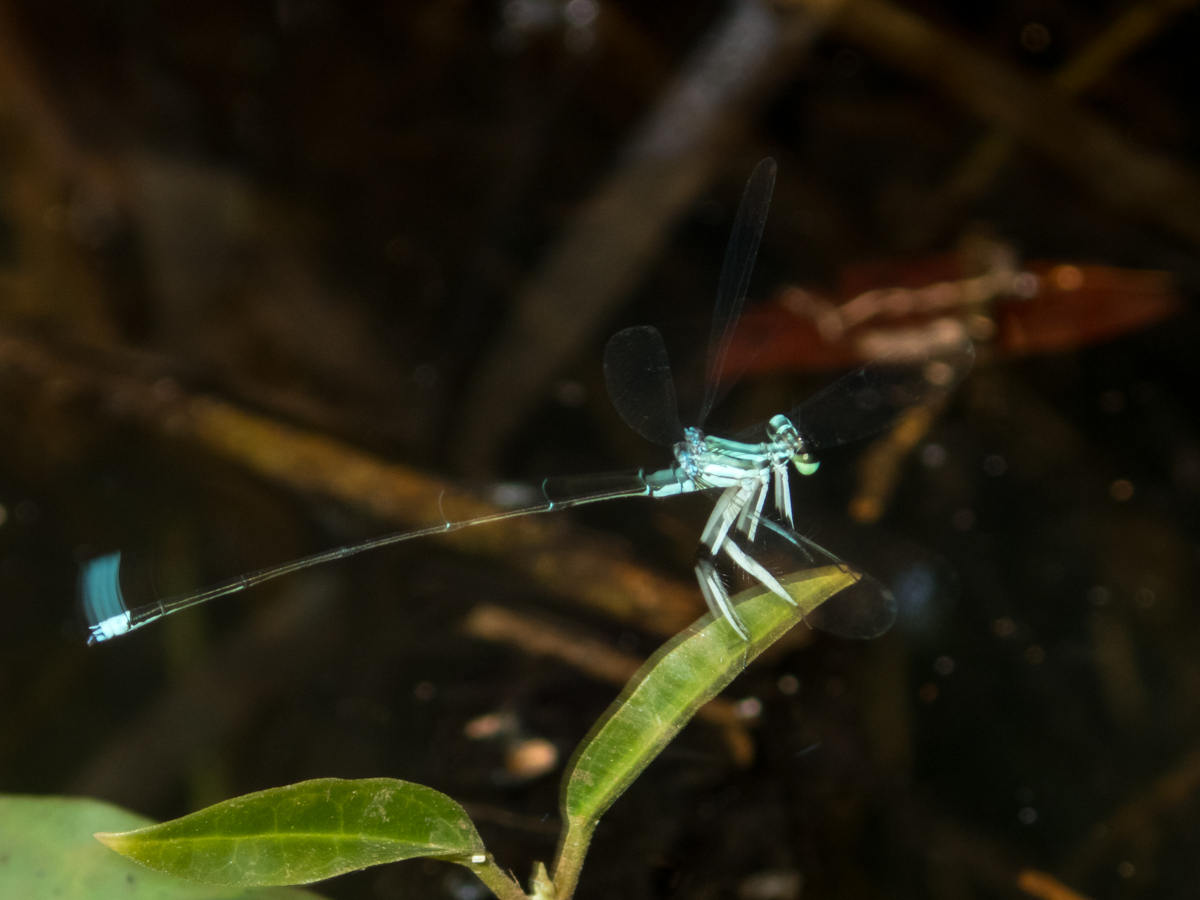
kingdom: Animalia
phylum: Arthropoda
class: Insecta
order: Odonata
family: Platycnemididae
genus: Pseudocopera
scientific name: Pseudocopera ciliata
